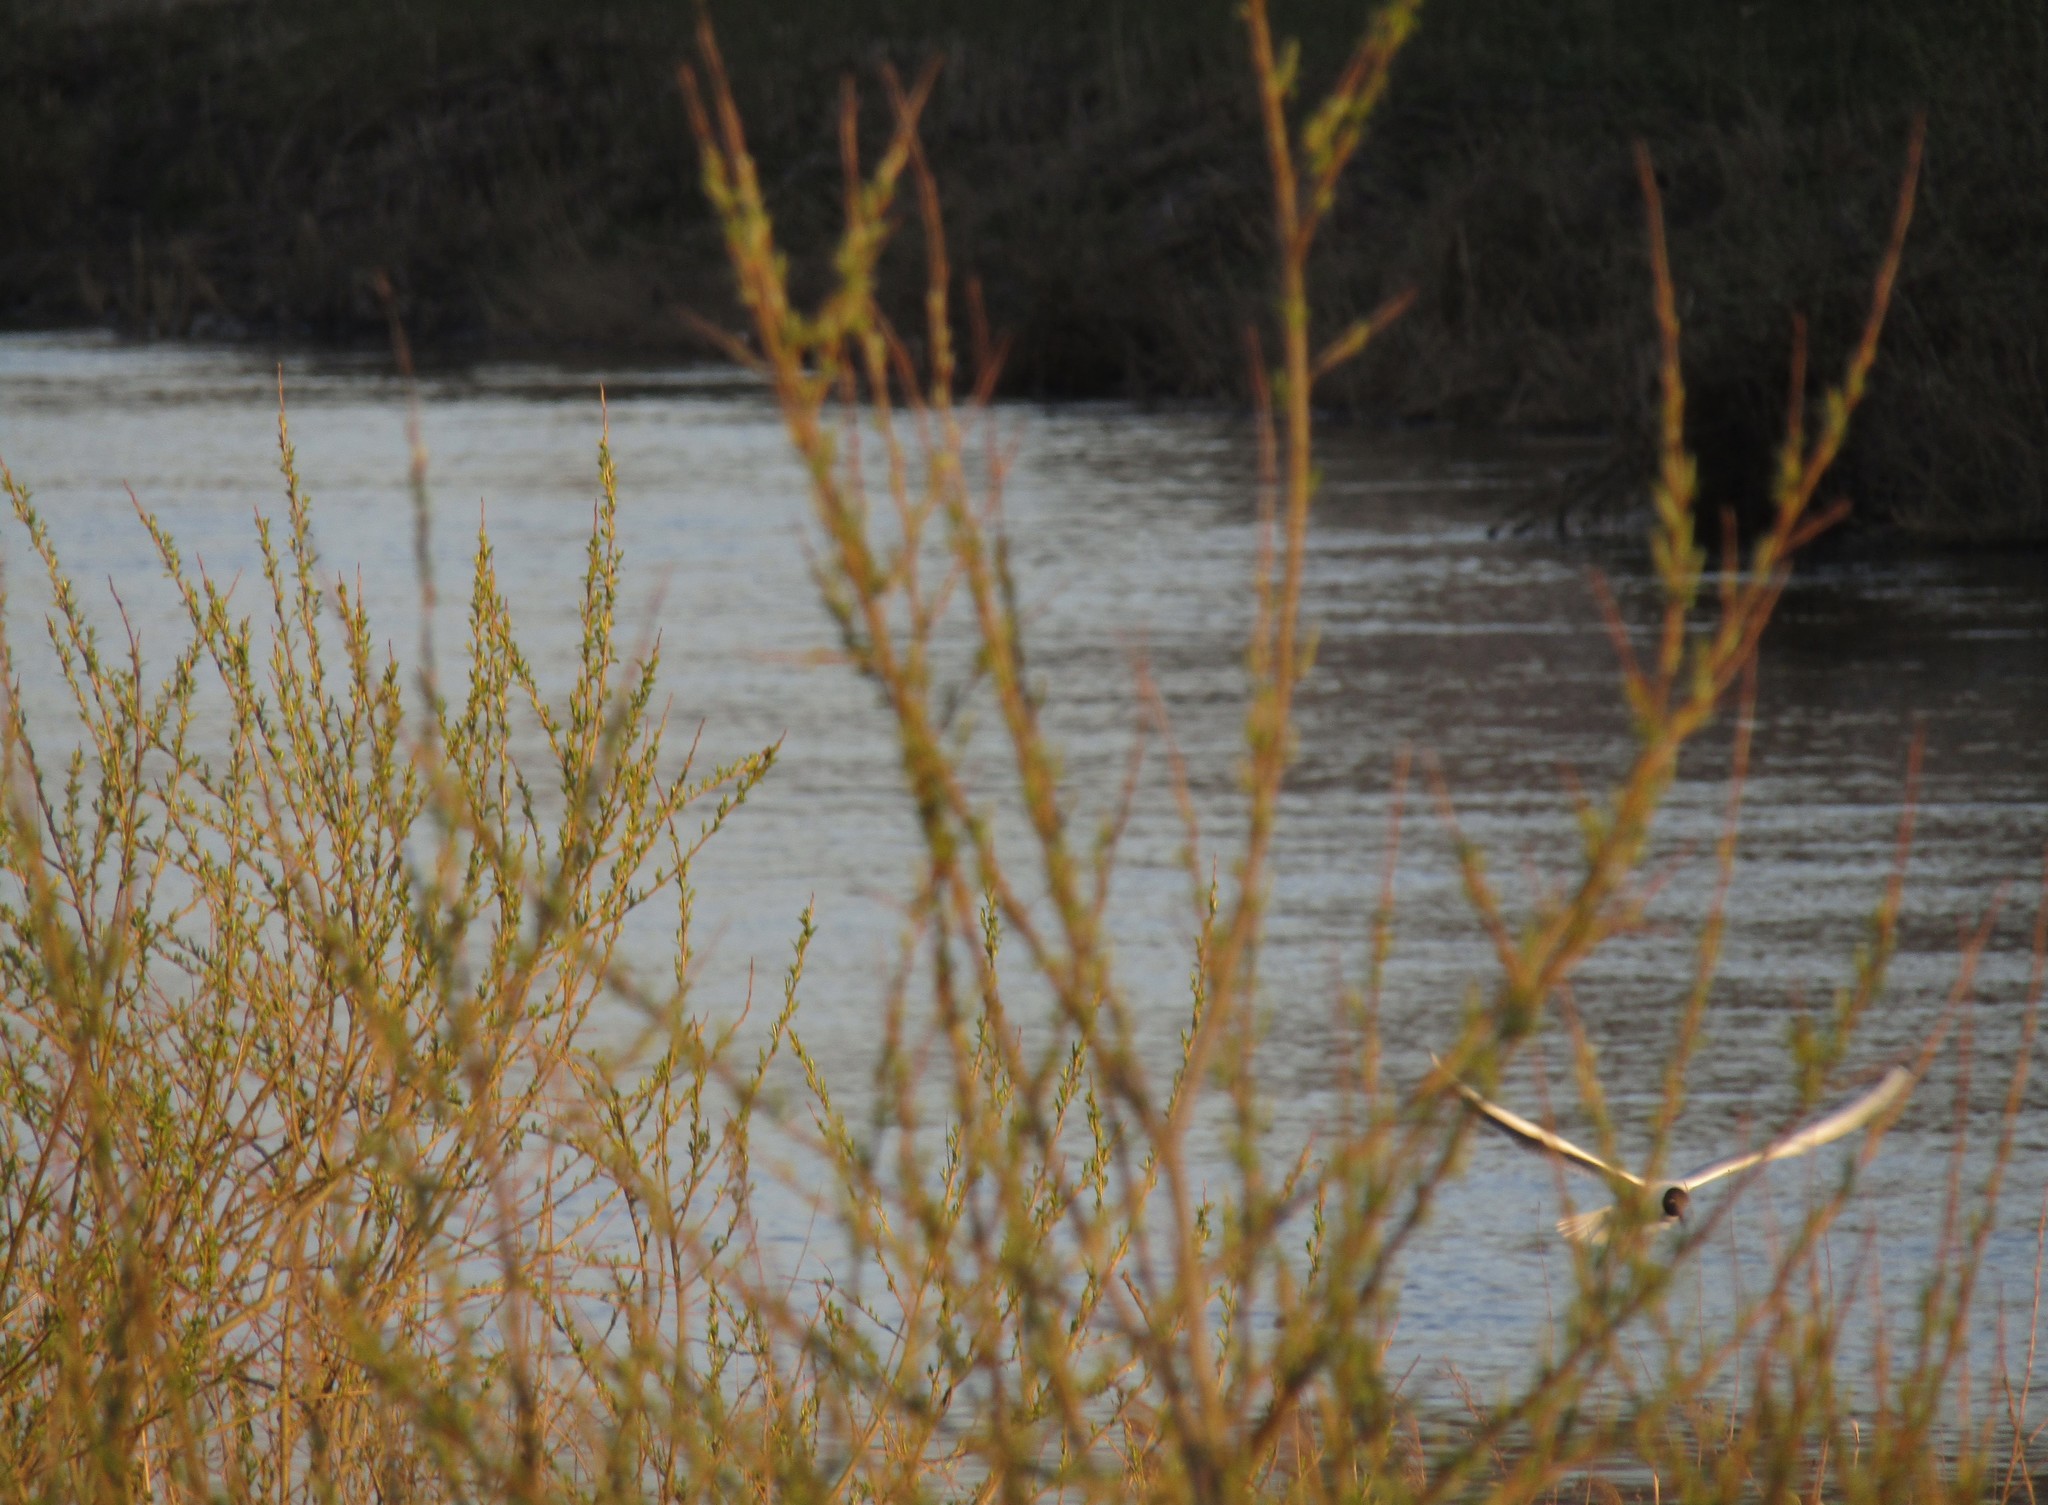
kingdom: Animalia
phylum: Chordata
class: Aves
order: Charadriiformes
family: Laridae
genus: Chroicocephalus
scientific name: Chroicocephalus ridibundus
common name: Black-headed gull
